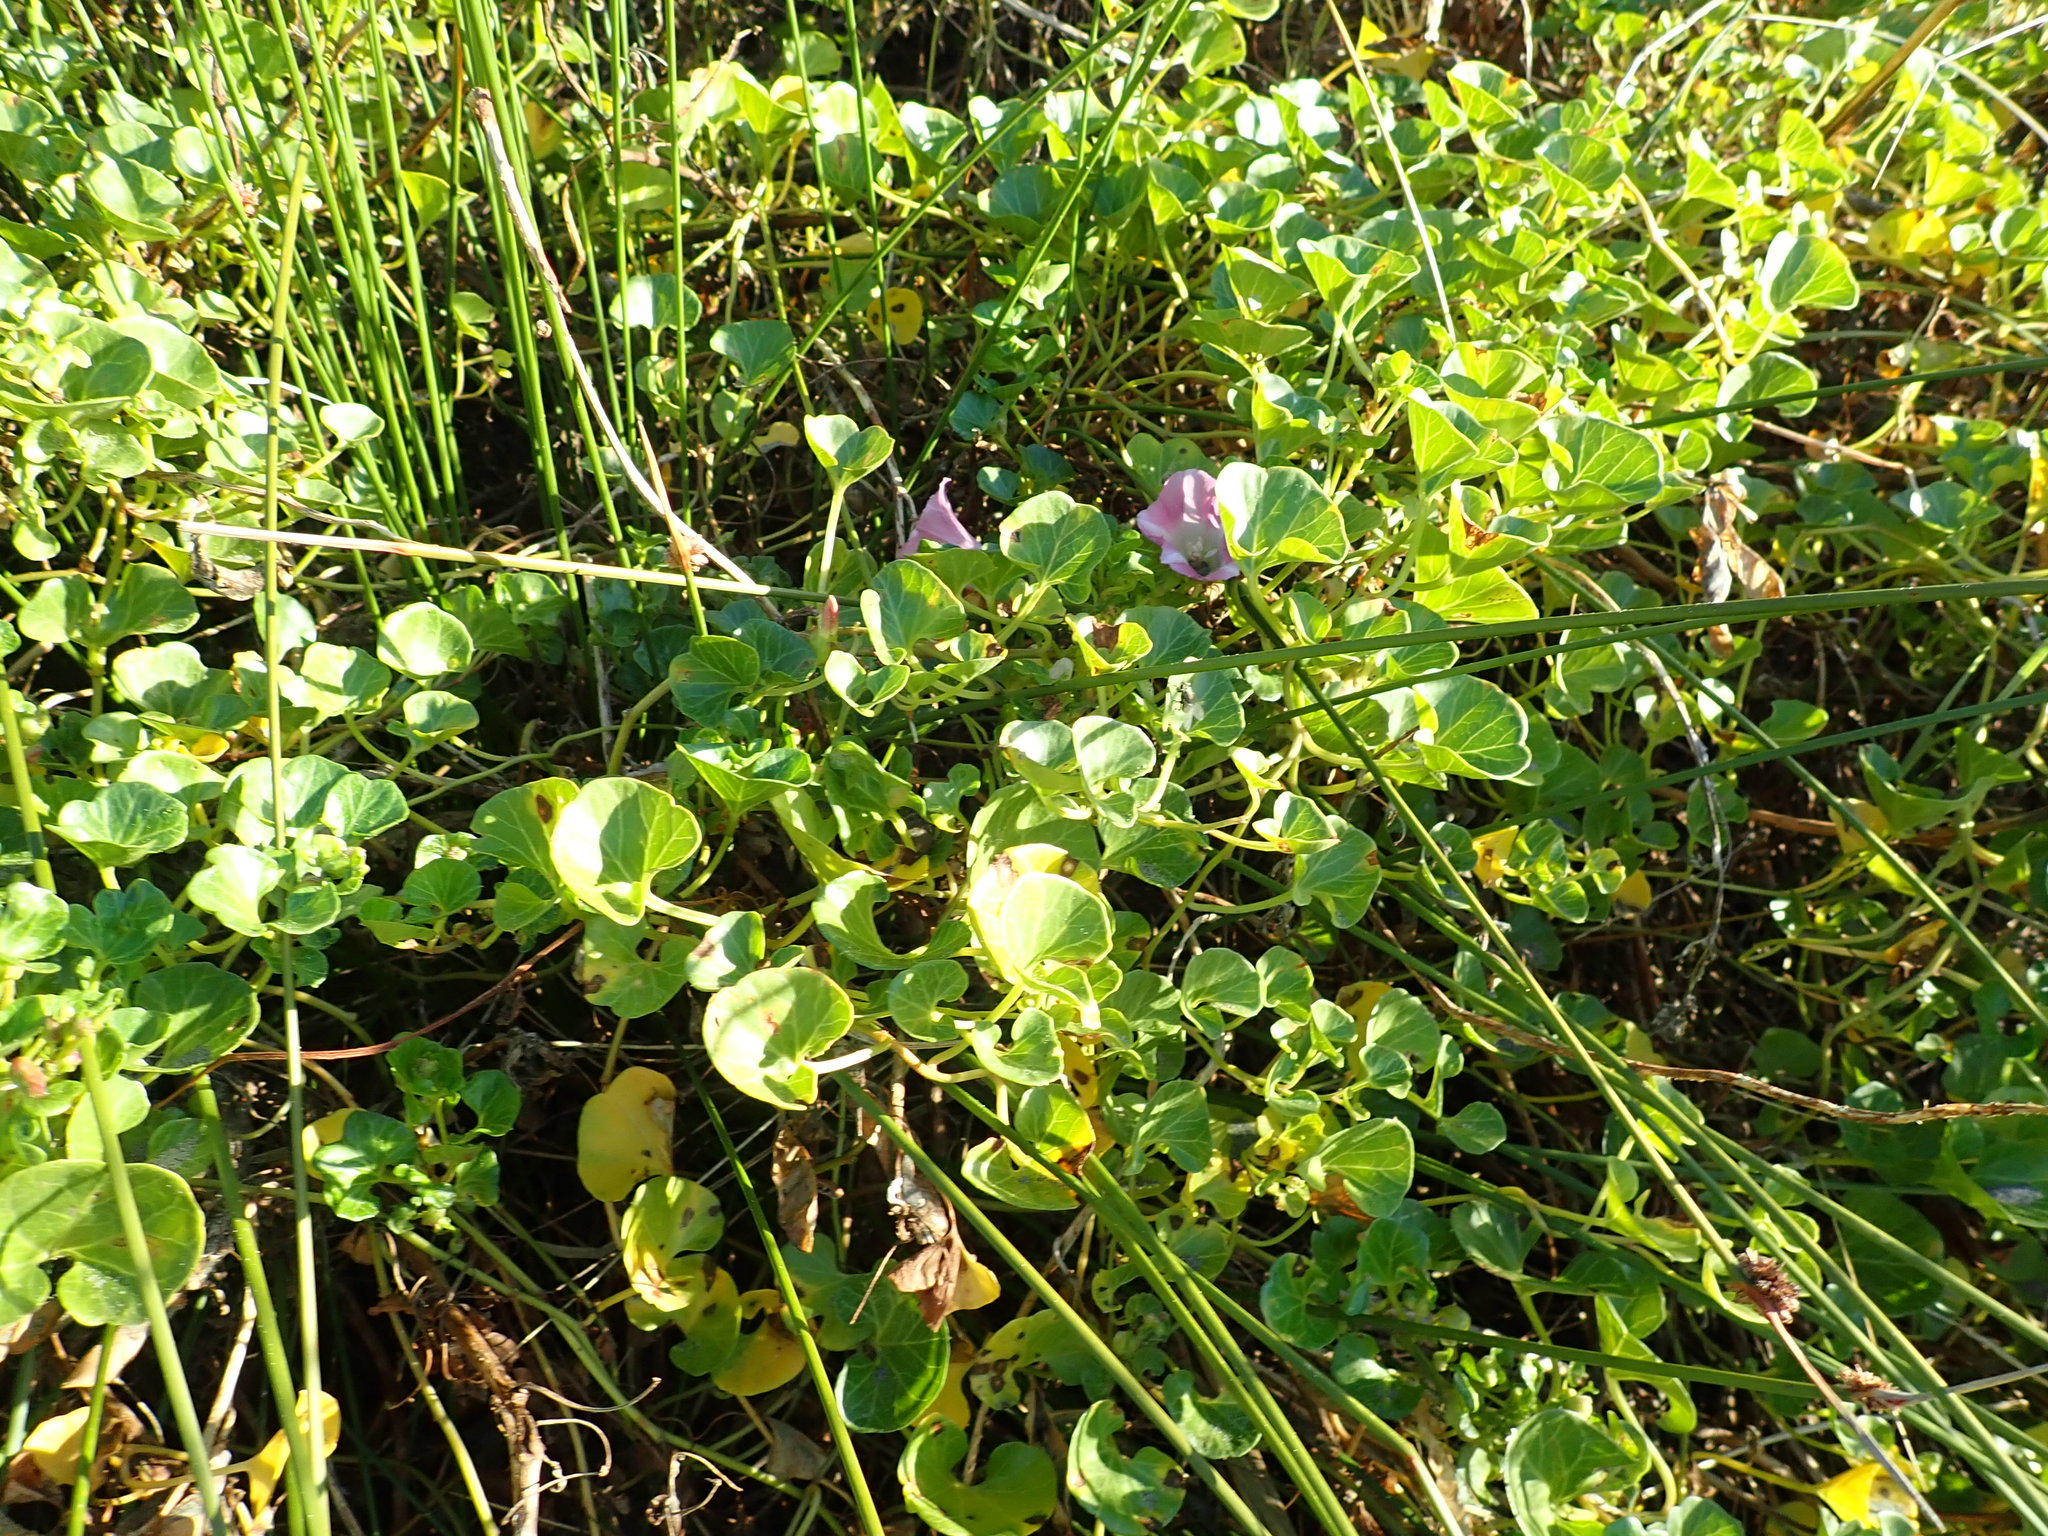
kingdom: Plantae
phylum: Tracheophyta
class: Magnoliopsida
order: Solanales
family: Convolvulaceae
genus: Calystegia
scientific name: Calystegia soldanella
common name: Sea bindweed
